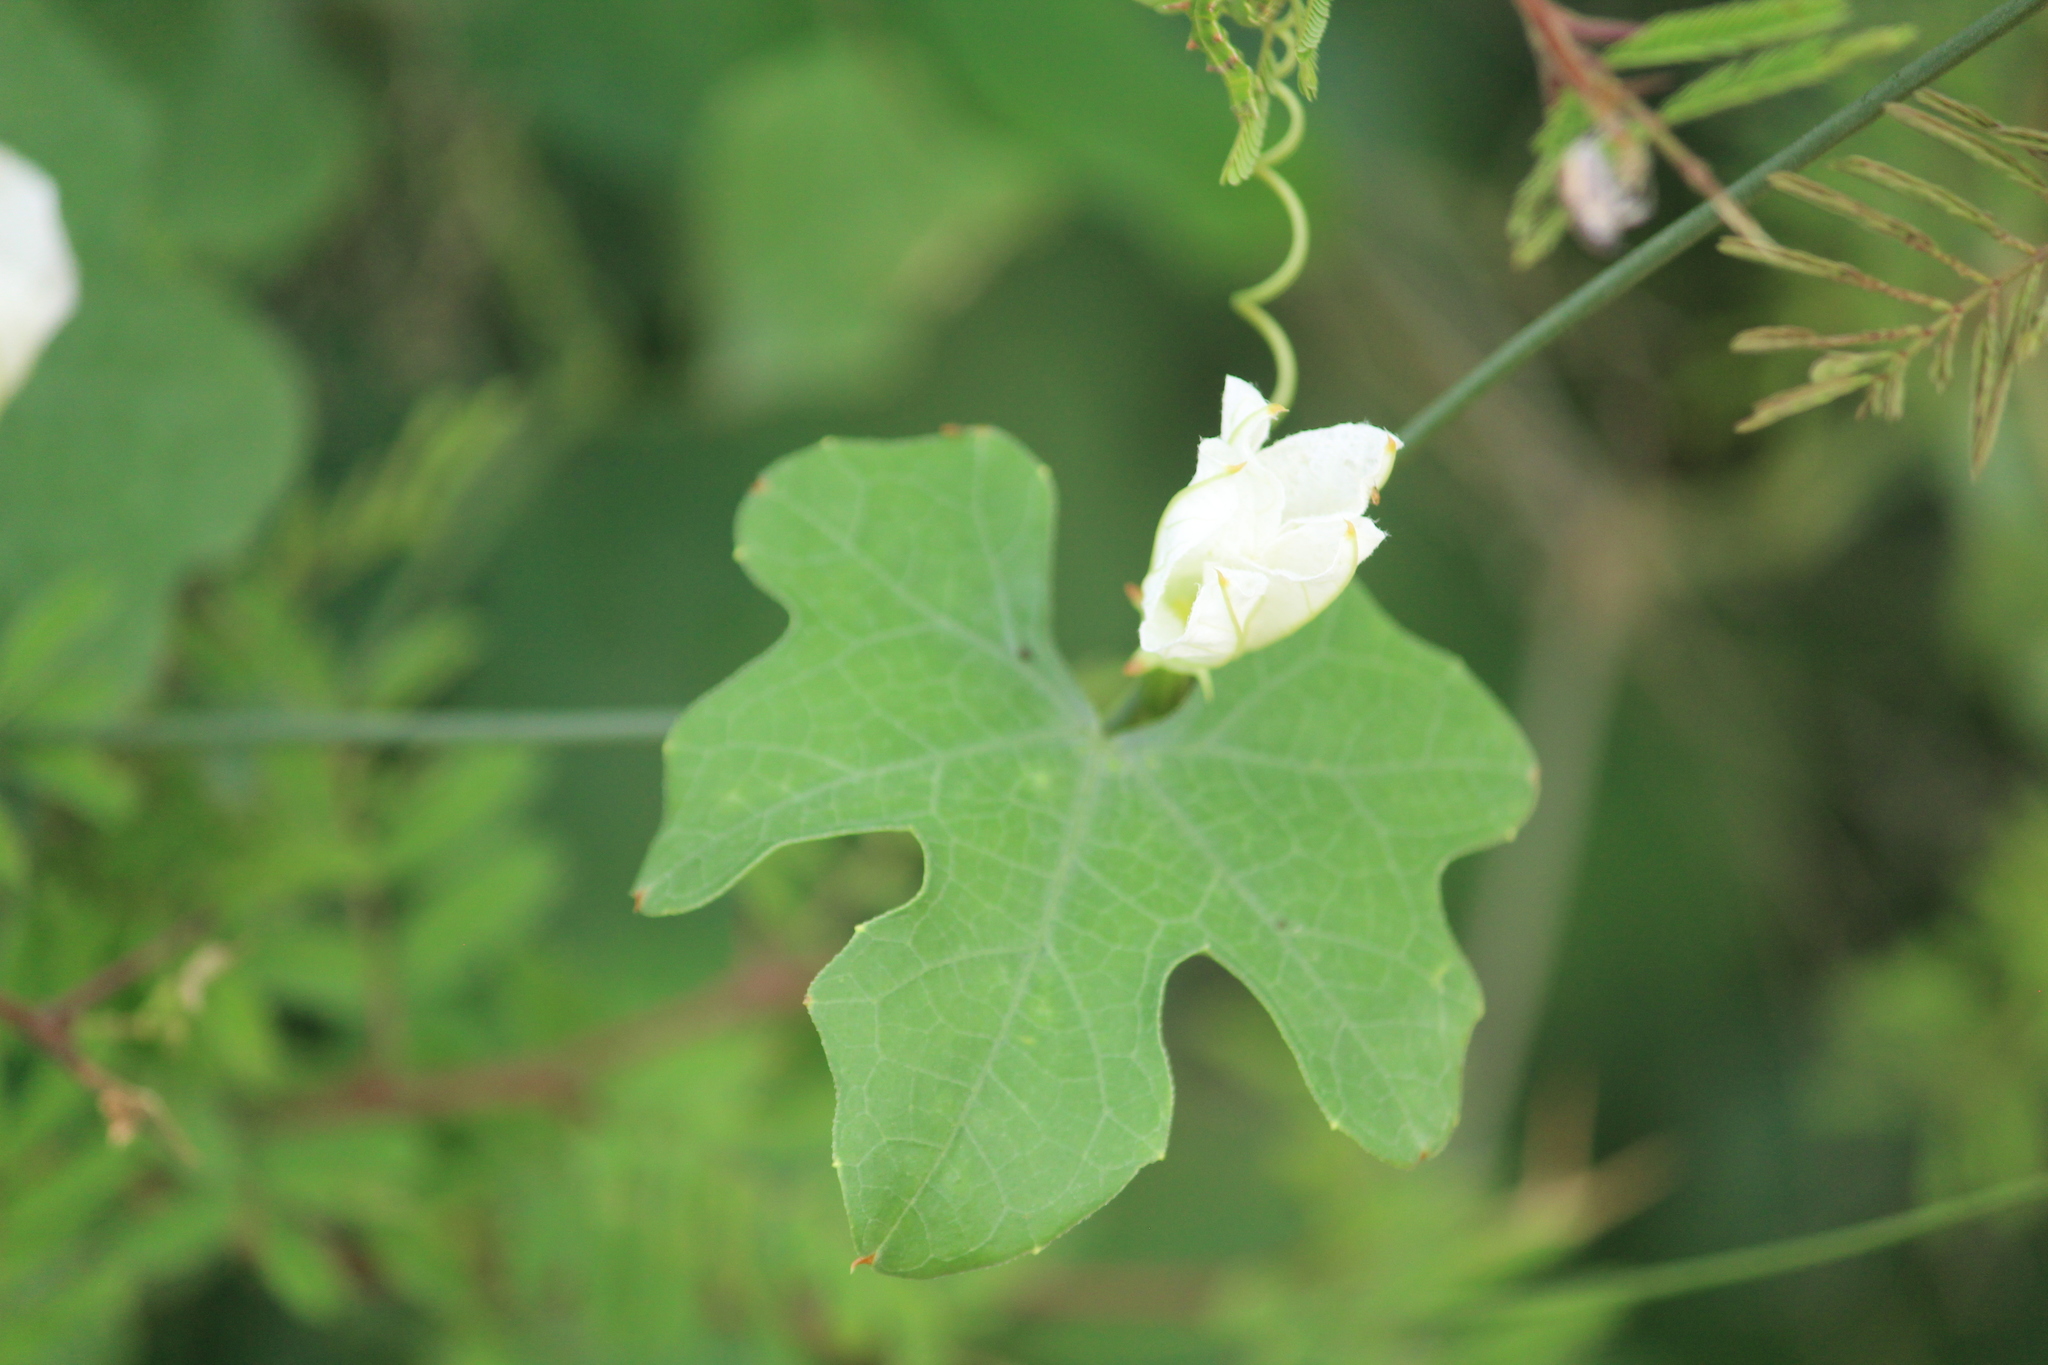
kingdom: Plantae
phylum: Tracheophyta
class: Magnoliopsida
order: Cucurbitales
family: Cucurbitaceae
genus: Coccinia
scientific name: Coccinia grandis
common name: Ivy gourd
